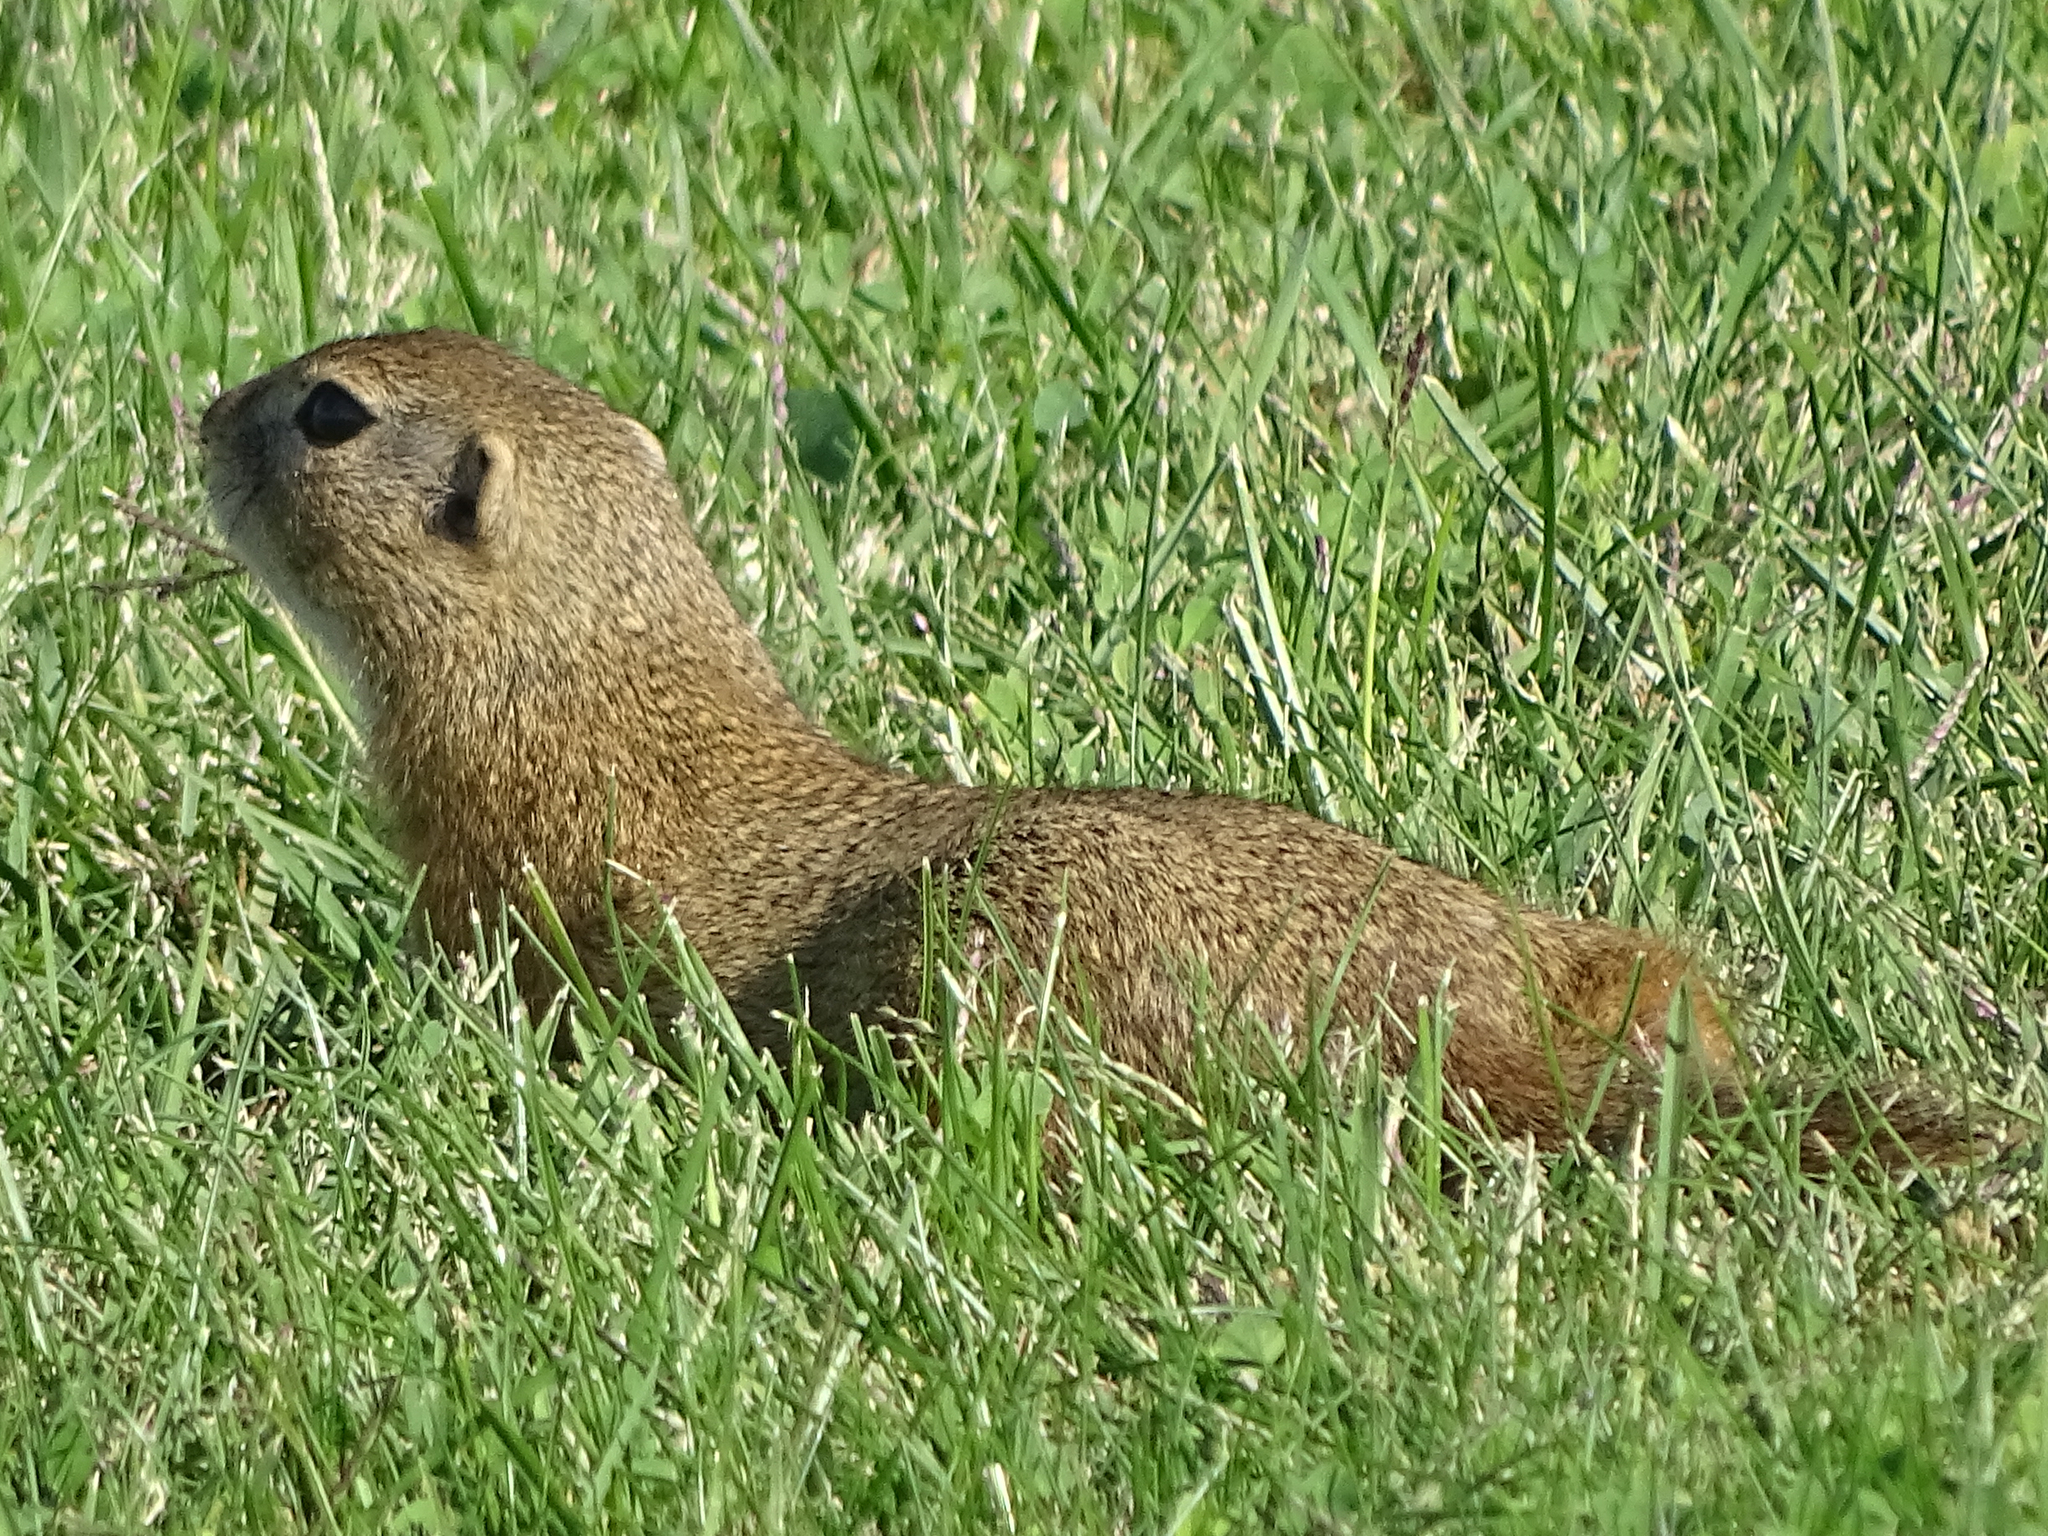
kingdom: Animalia
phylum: Chordata
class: Mammalia
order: Rodentia
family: Sciuridae
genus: Spermophilus
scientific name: Spermophilus citellus
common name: European ground squirrel
